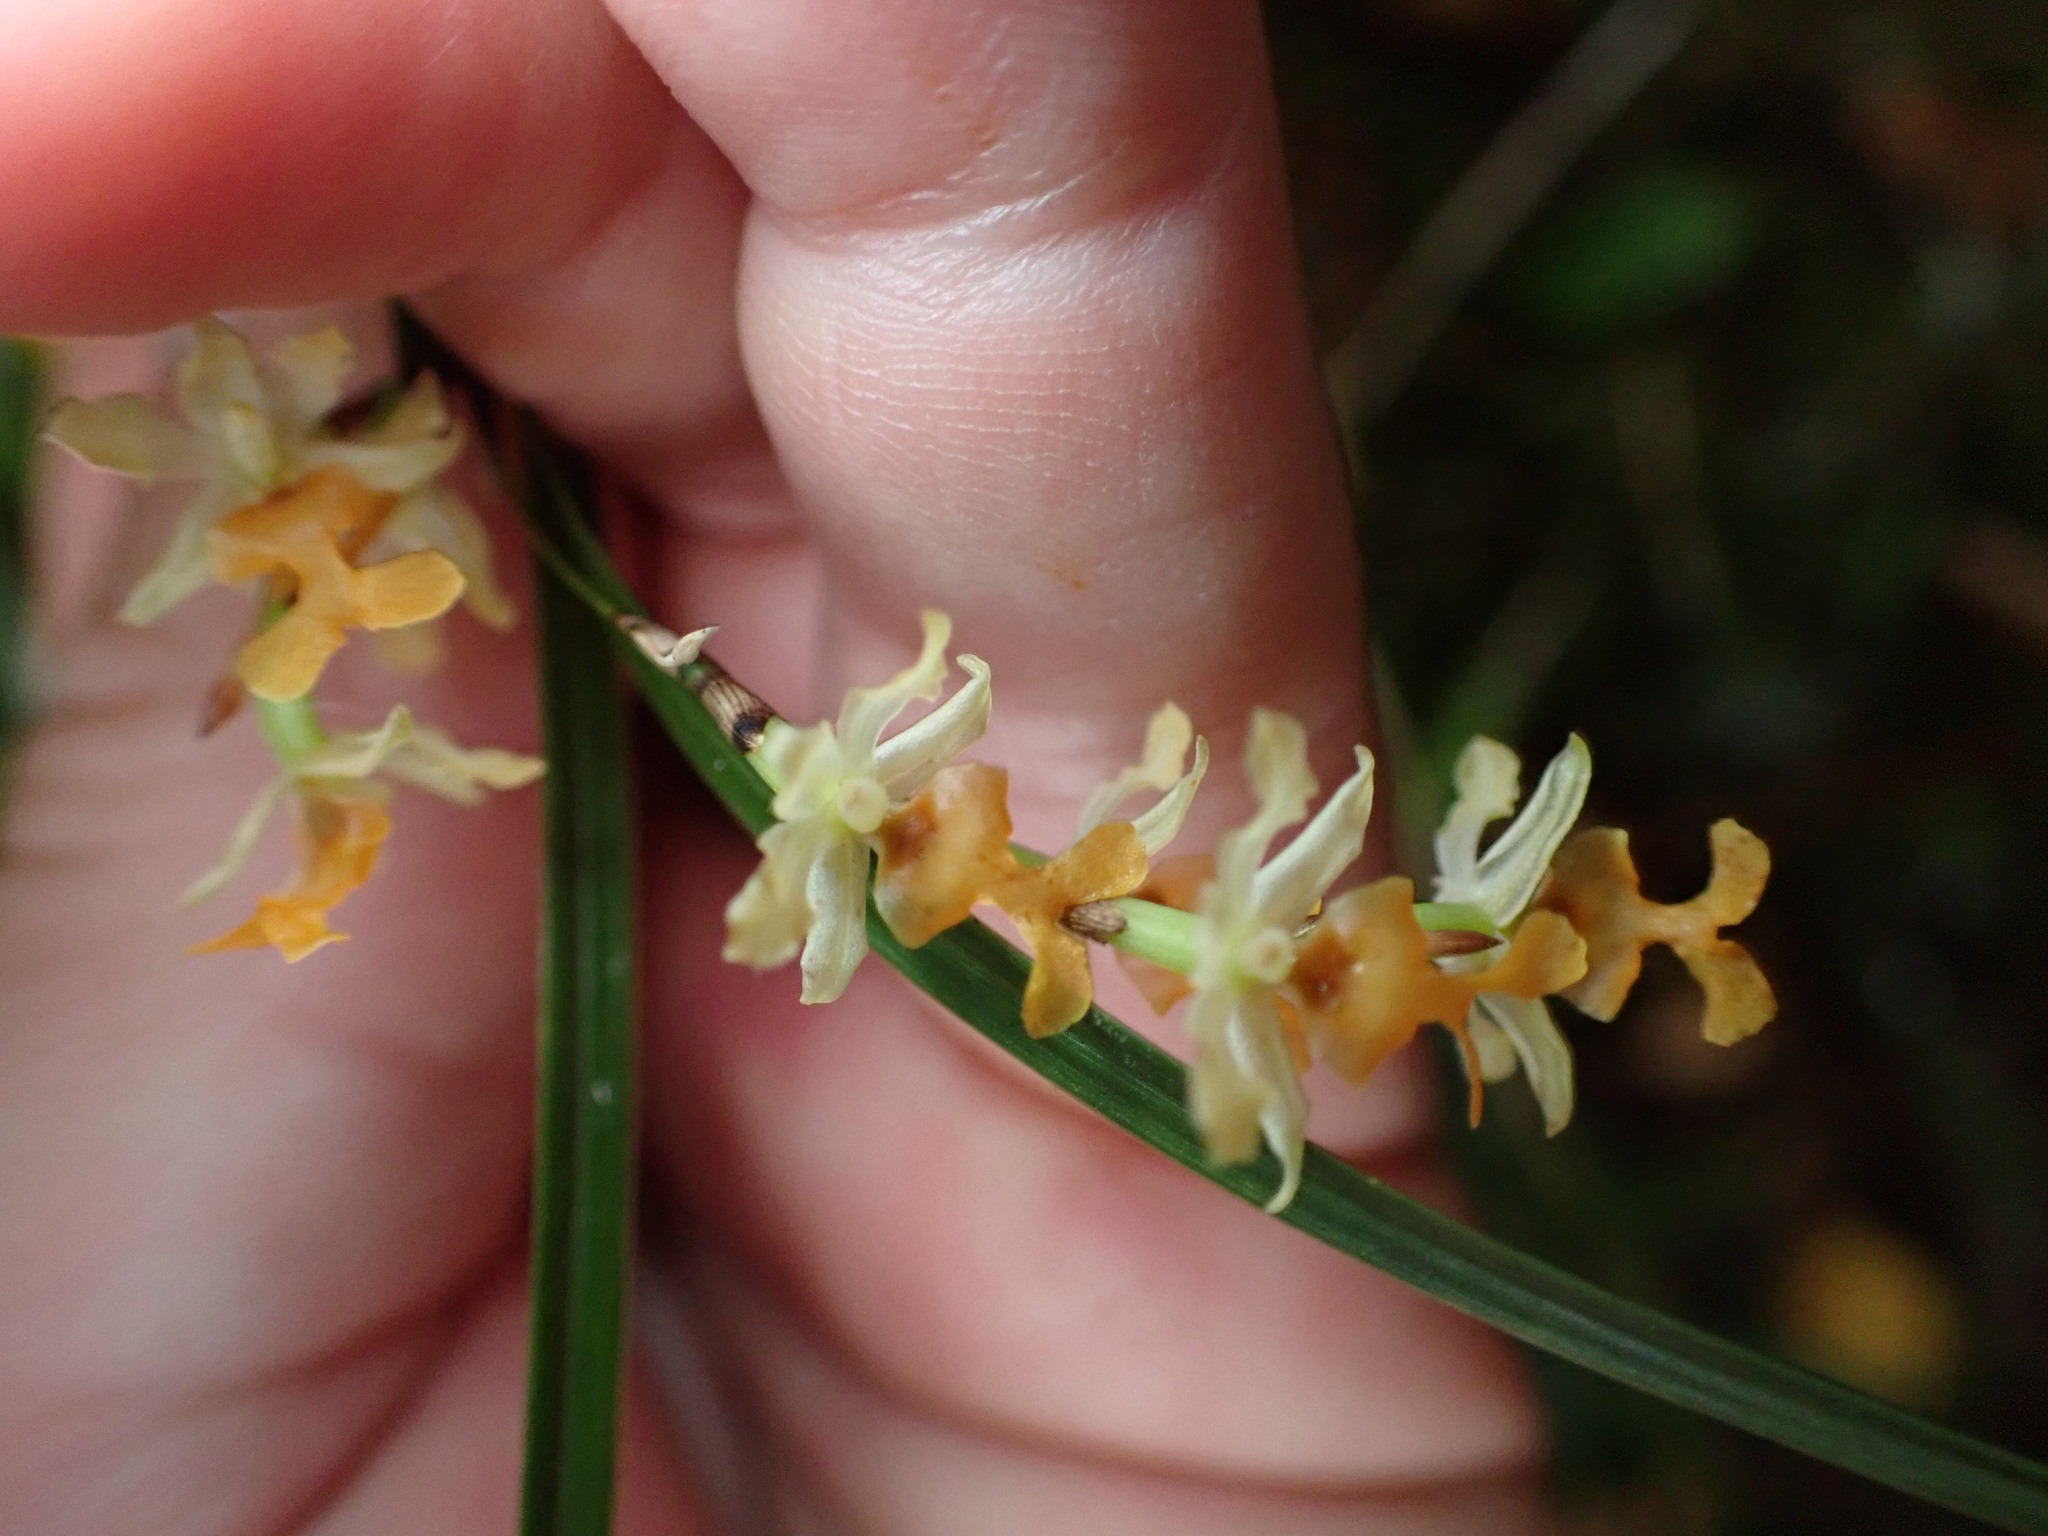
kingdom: Plantae
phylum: Tracheophyta
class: Liliopsida
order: Asparagales
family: Orchidaceae
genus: Earina
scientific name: Earina mucronata
